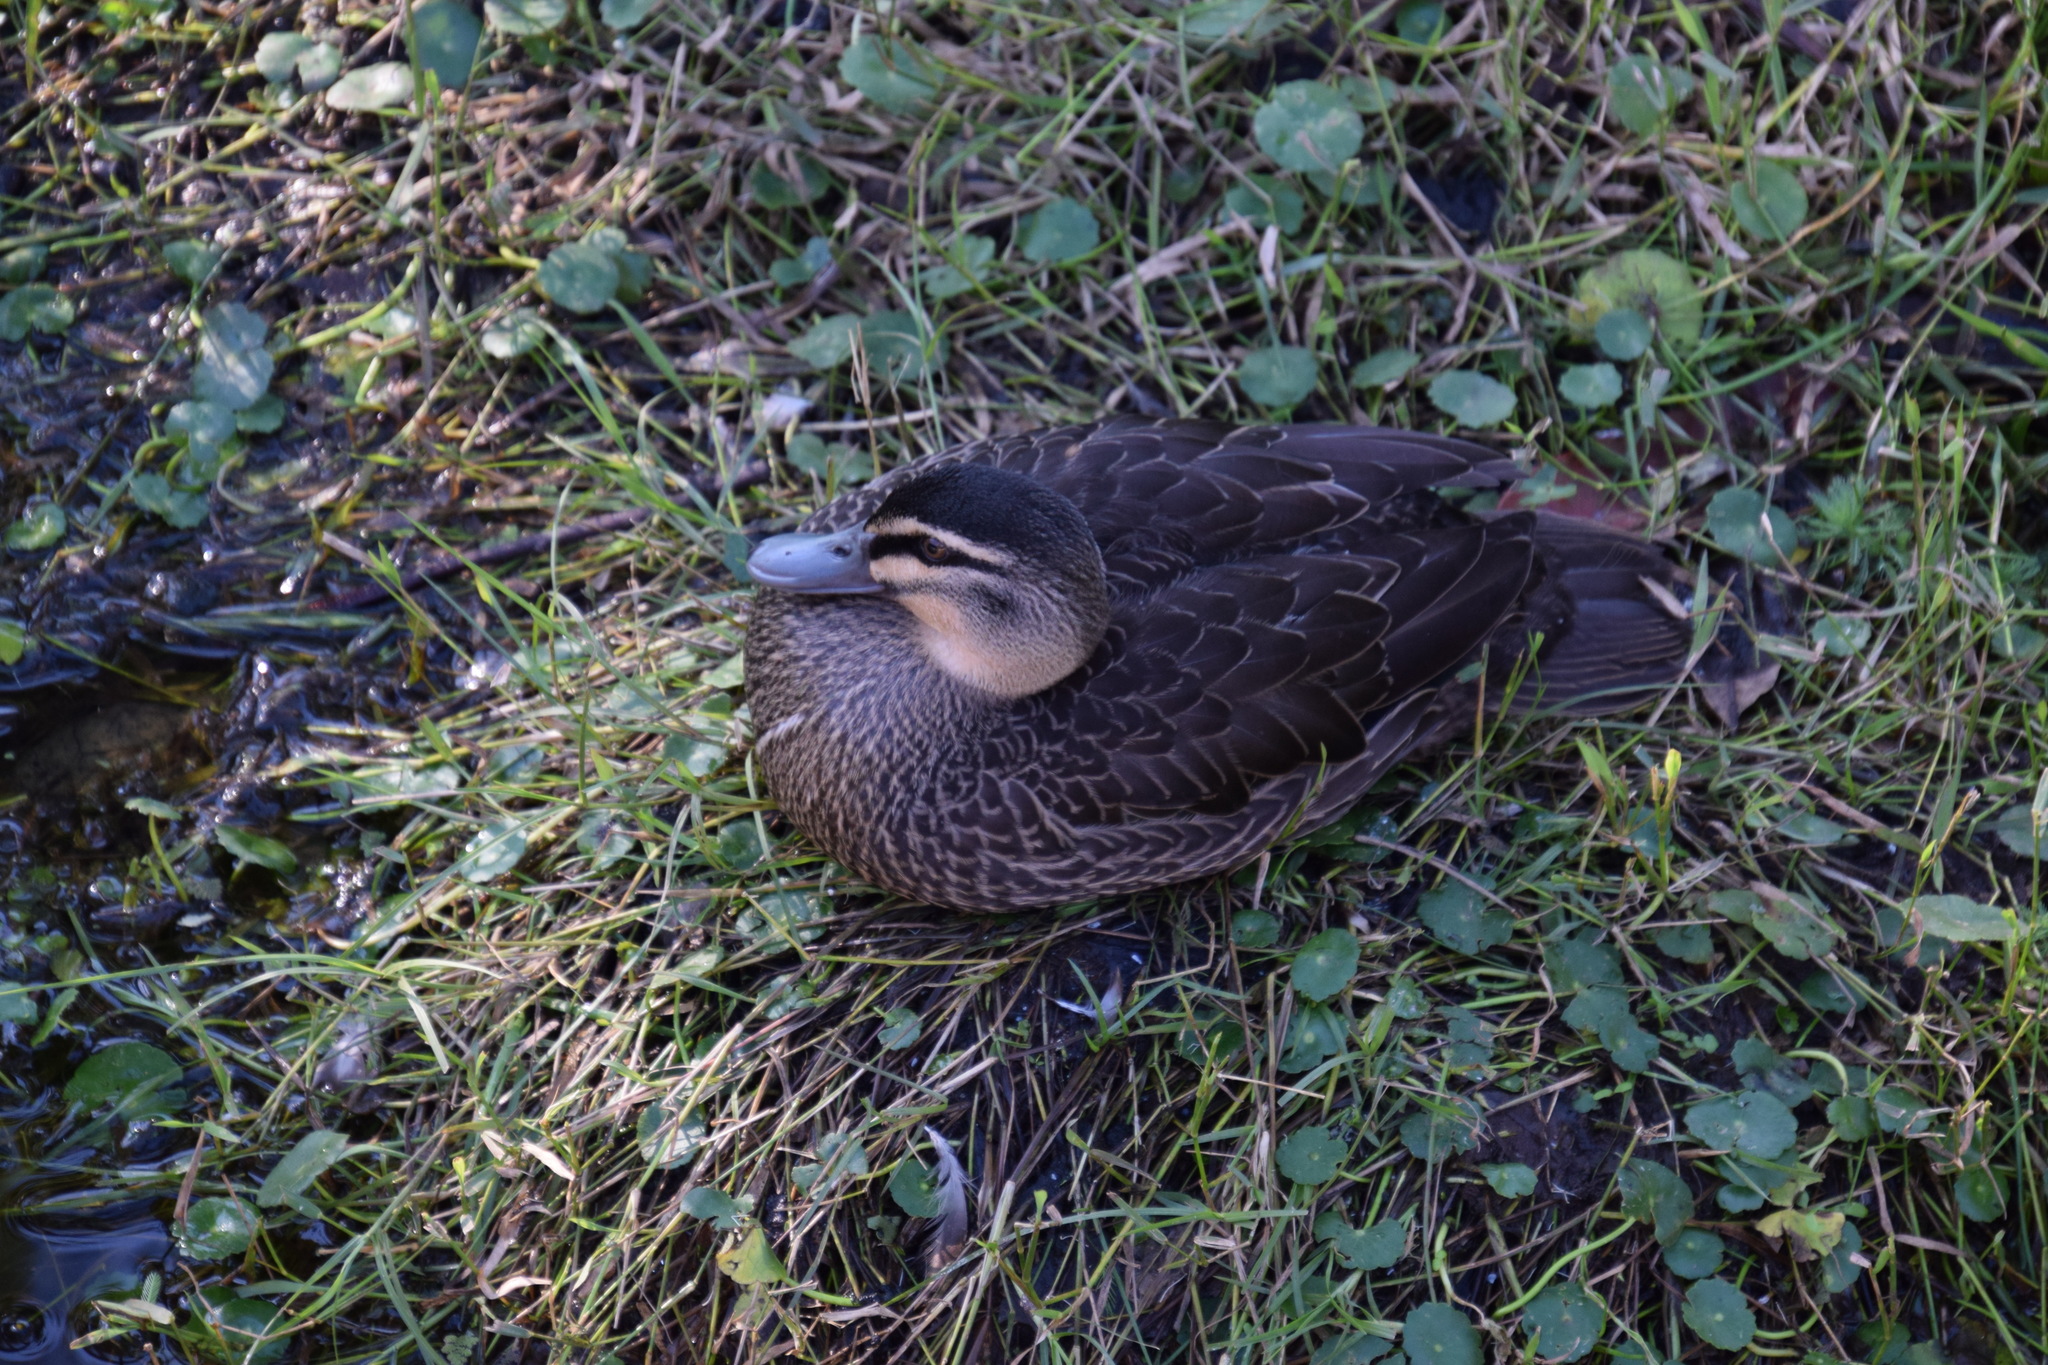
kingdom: Animalia
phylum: Chordata
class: Aves
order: Anseriformes
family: Anatidae
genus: Anas
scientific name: Anas superciliosa
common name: Pacific black duck
